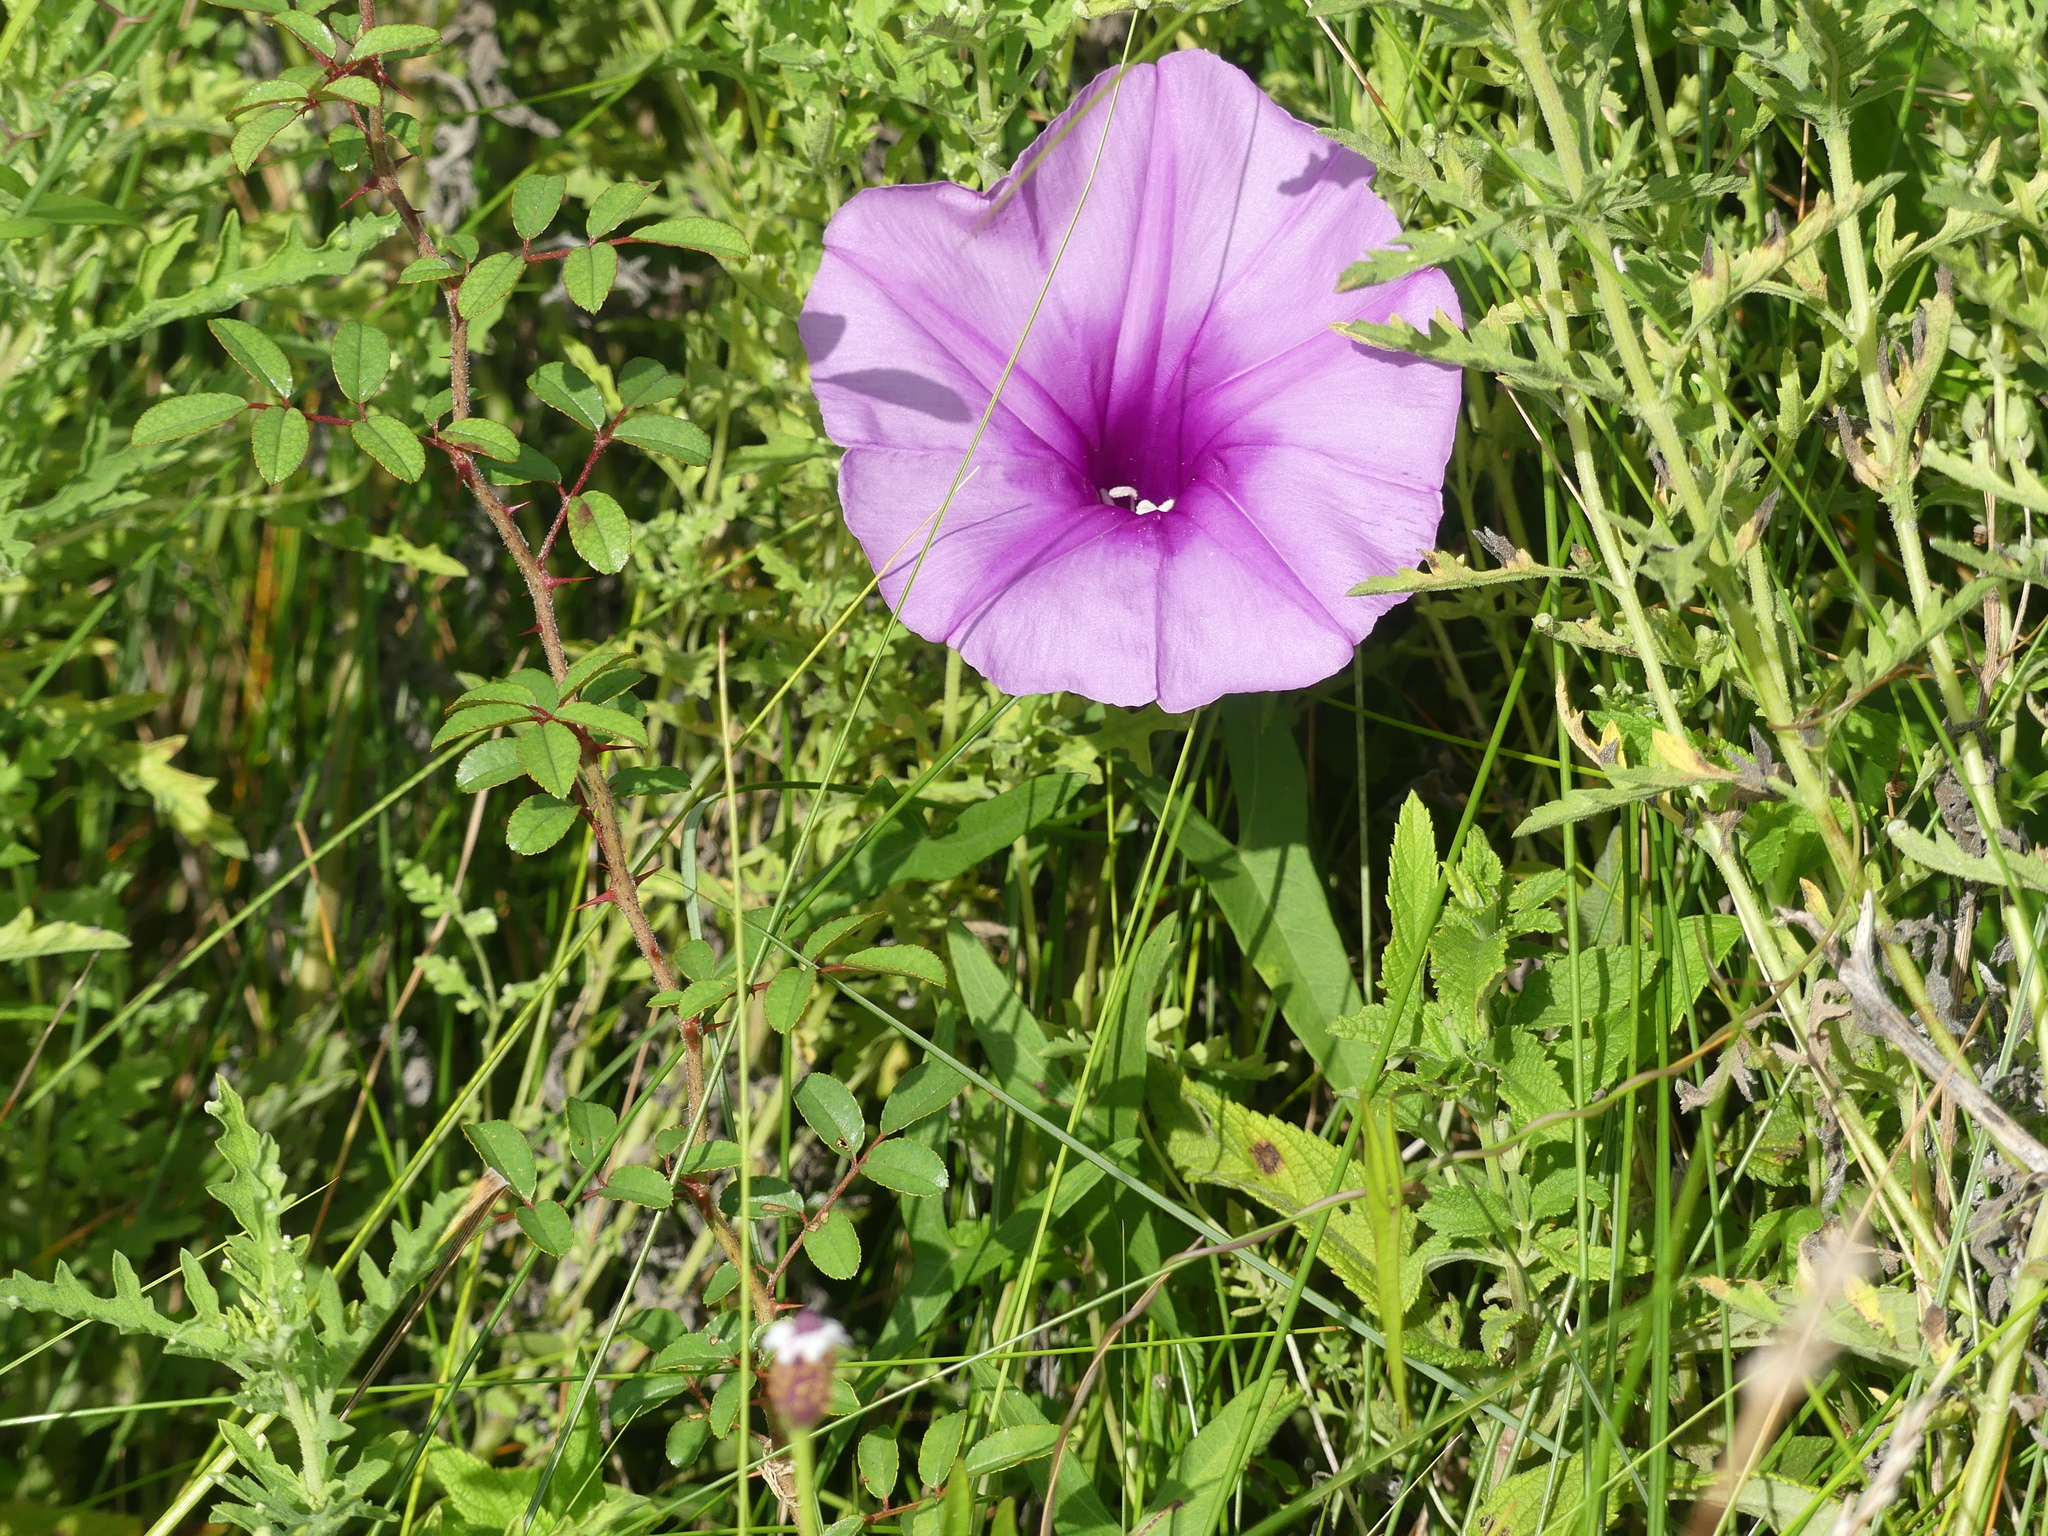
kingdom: Plantae
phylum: Tracheophyta
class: Magnoliopsida
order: Solanales
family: Convolvulaceae
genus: Ipomoea
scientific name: Ipomoea sagittata
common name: Saltmarsh morning glory
